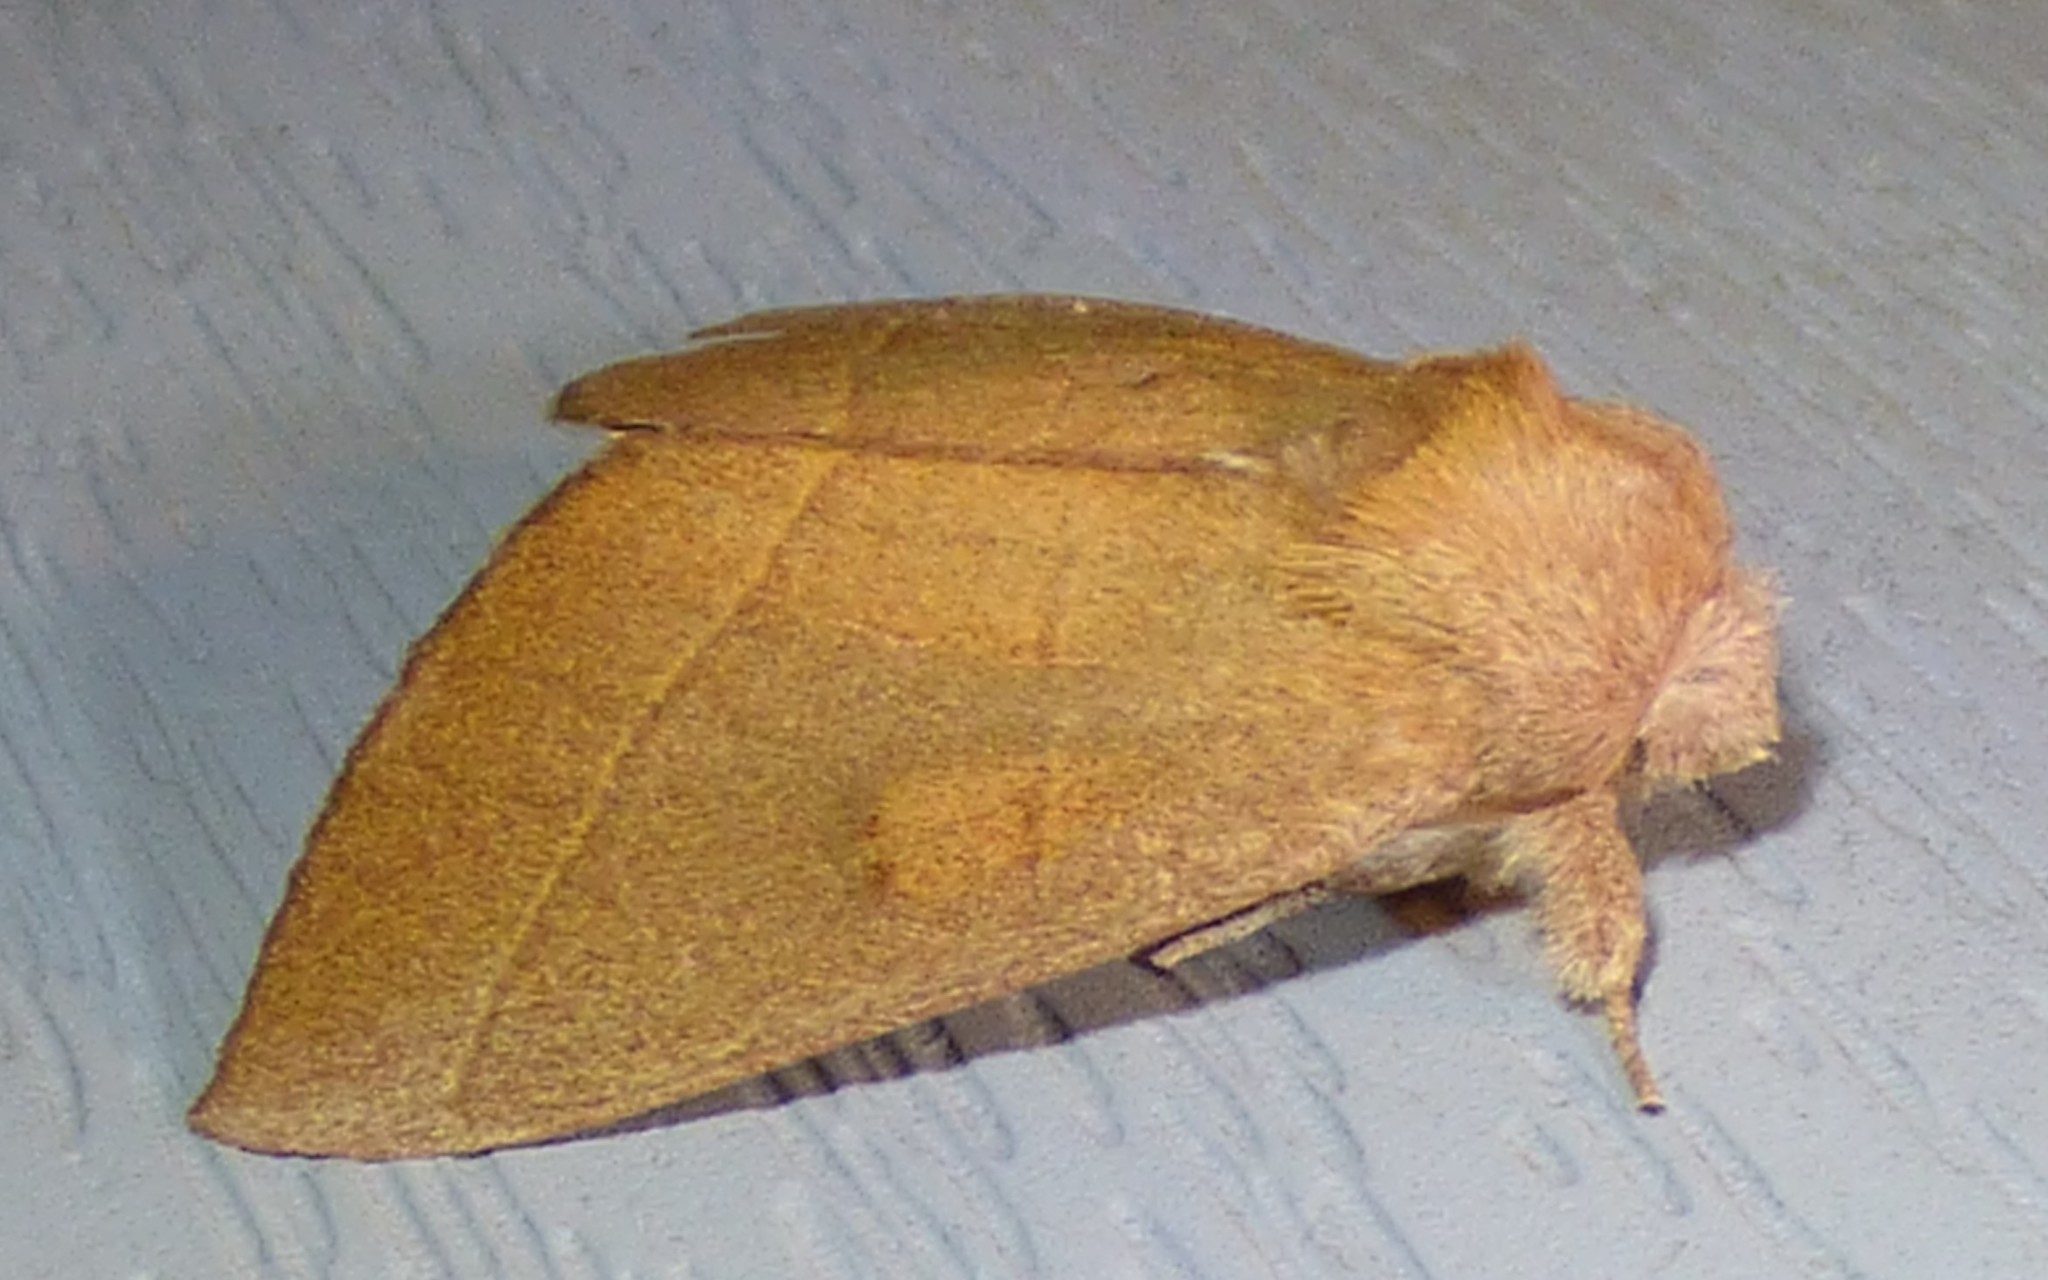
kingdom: Animalia
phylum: Arthropoda
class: Insecta
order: Lepidoptera
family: Notodontidae
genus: Nadata
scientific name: Nadata gibbosa
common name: White-dotted prominent
